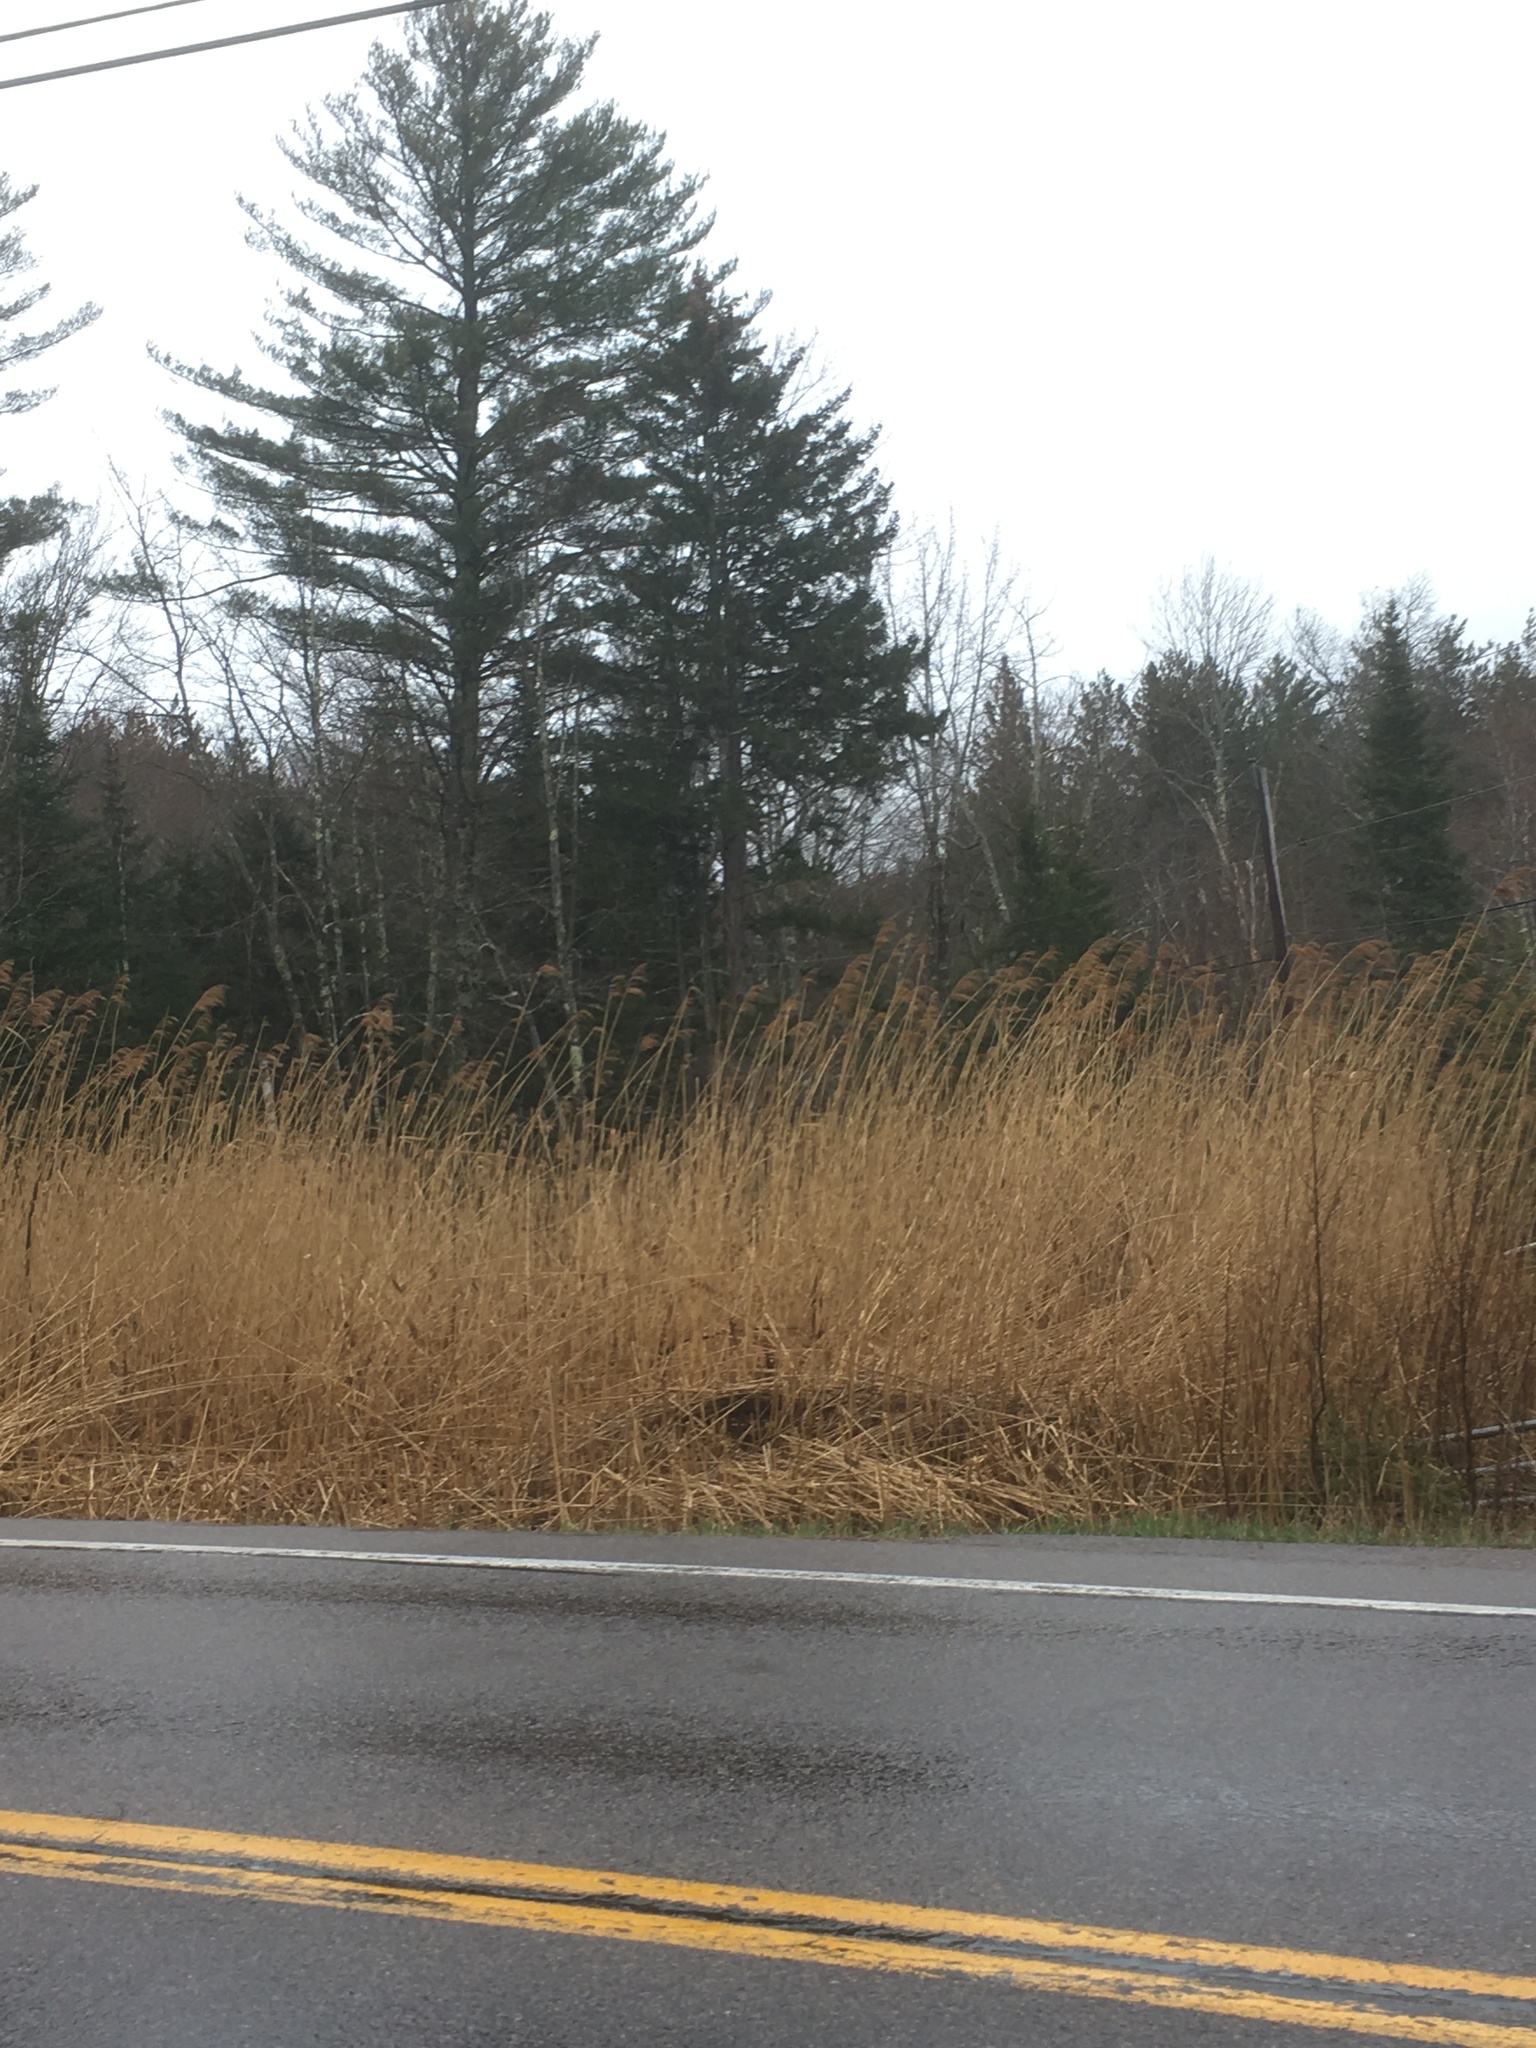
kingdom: Plantae
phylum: Tracheophyta
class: Pinopsida
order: Pinales
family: Pinaceae
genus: Pinus
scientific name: Pinus strobus
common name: Weymouth pine
